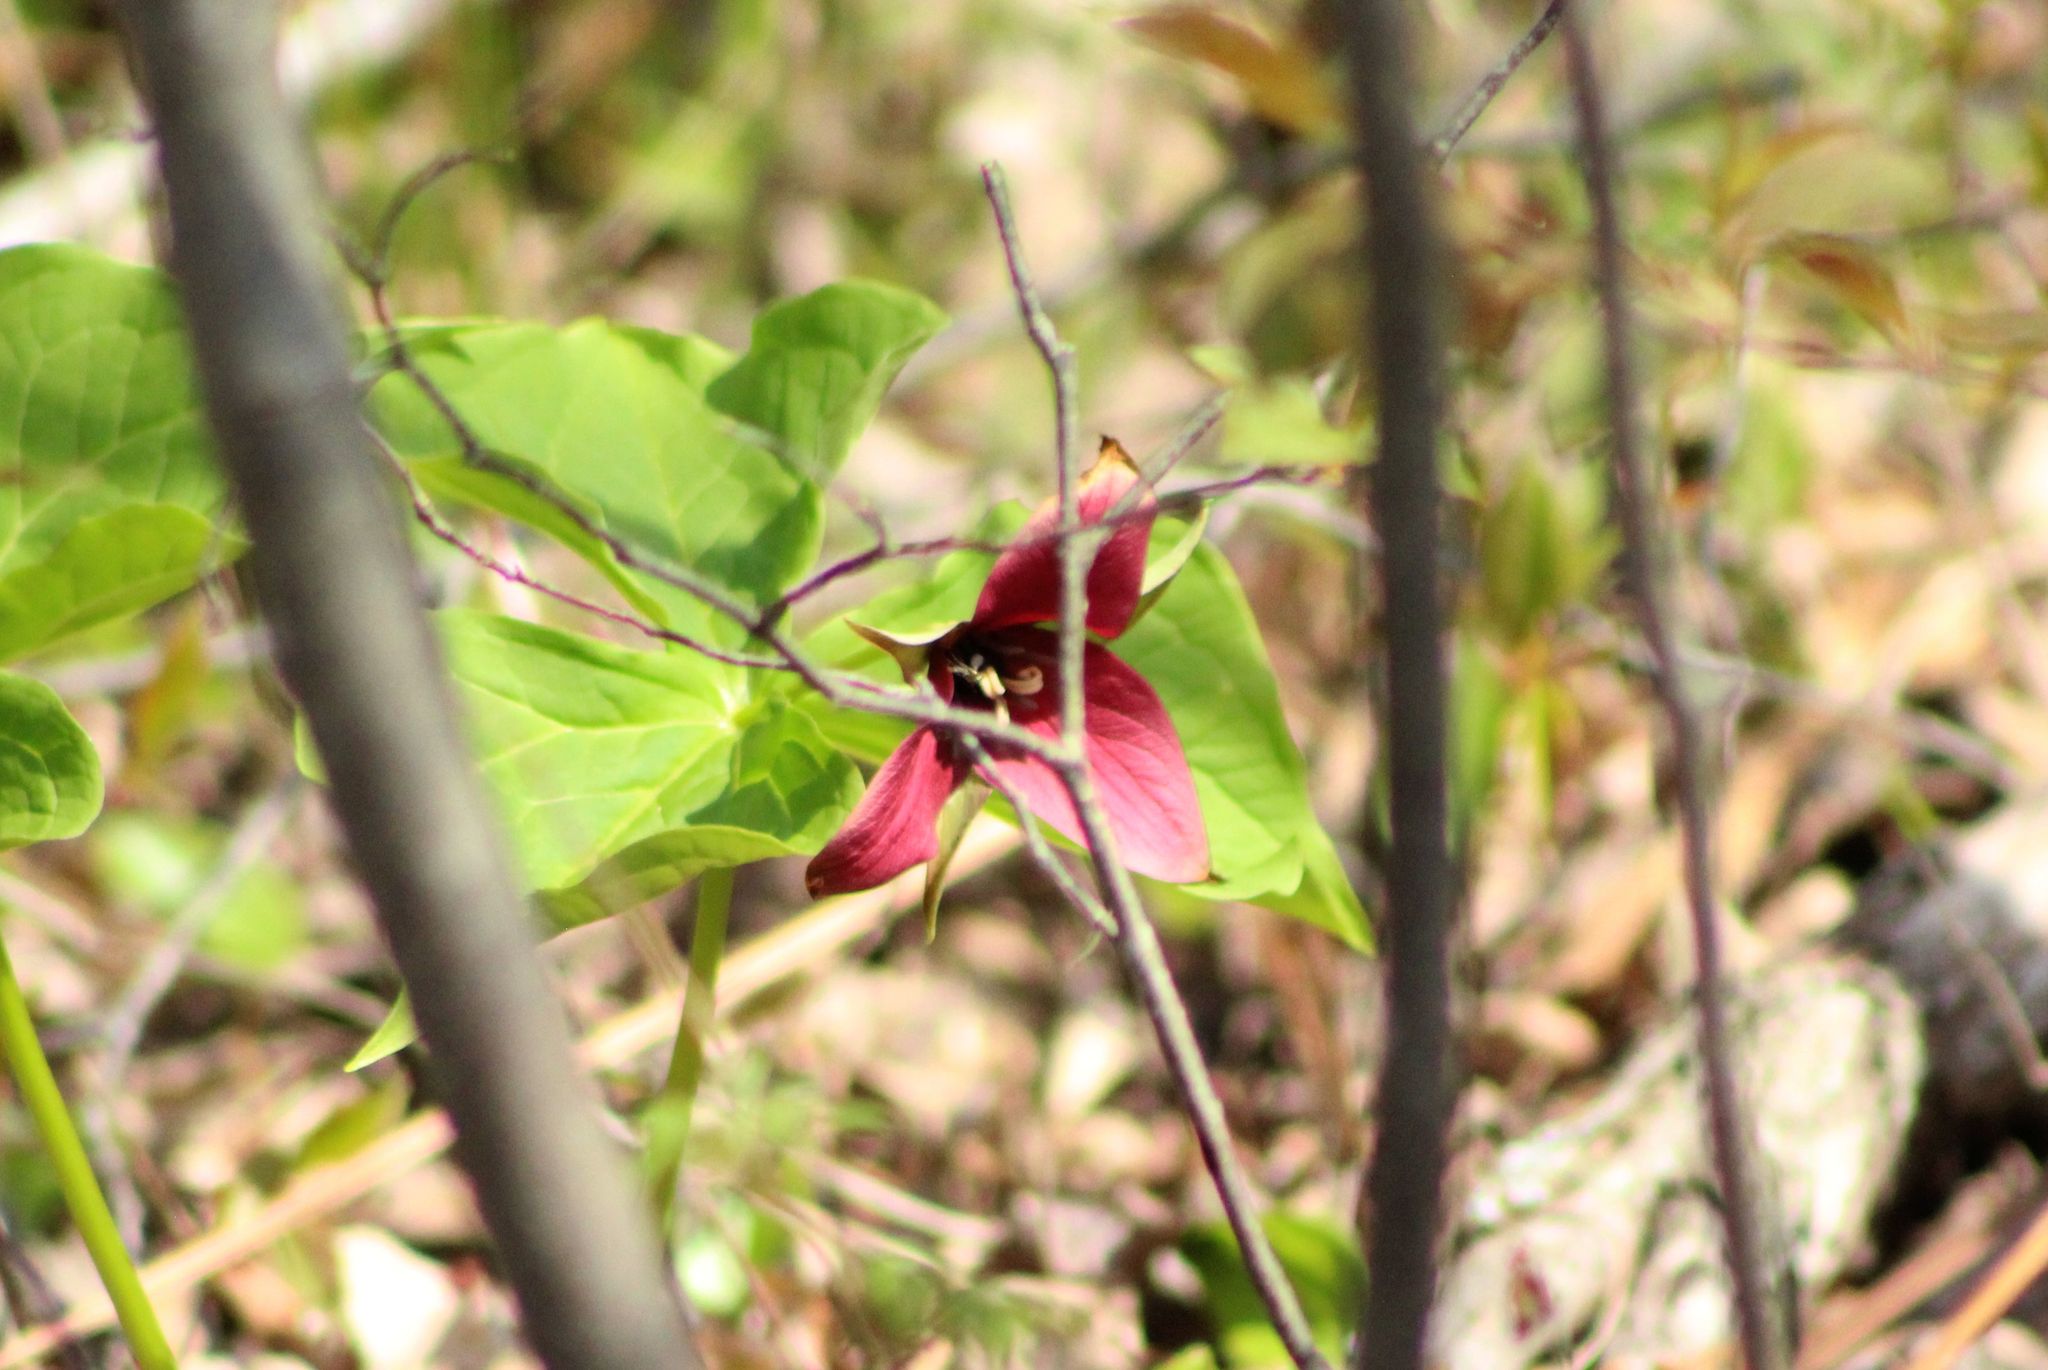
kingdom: Plantae
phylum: Tracheophyta
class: Liliopsida
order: Liliales
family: Melanthiaceae
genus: Trillium
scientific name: Trillium erectum
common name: Purple trillium
